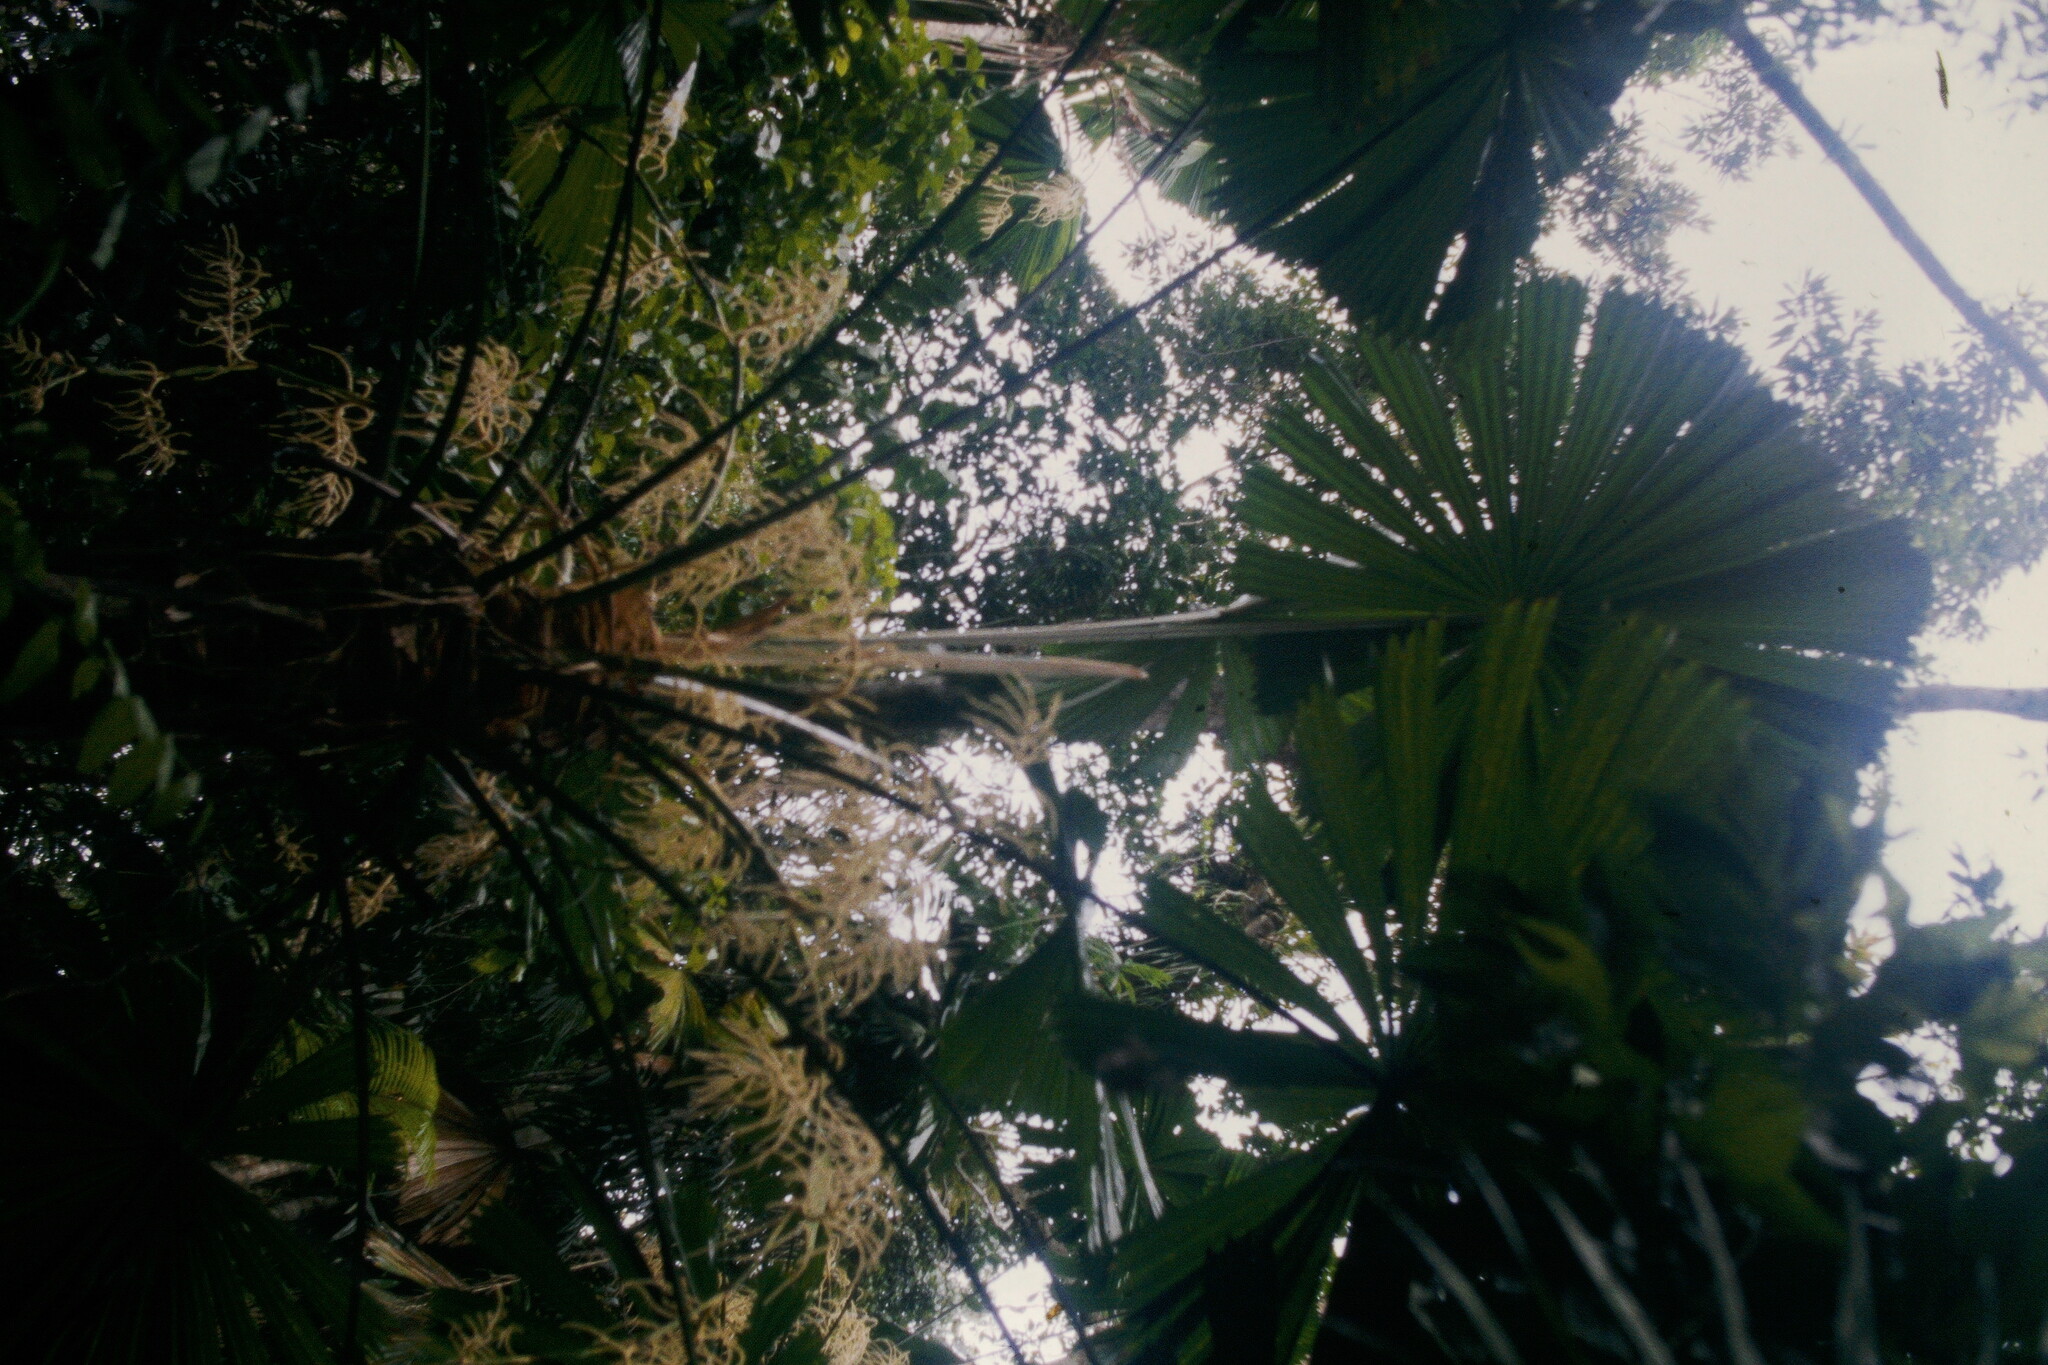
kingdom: Plantae
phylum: Tracheophyta
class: Liliopsida
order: Arecales
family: Arecaceae
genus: Licuala
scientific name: Licuala ramsayi
